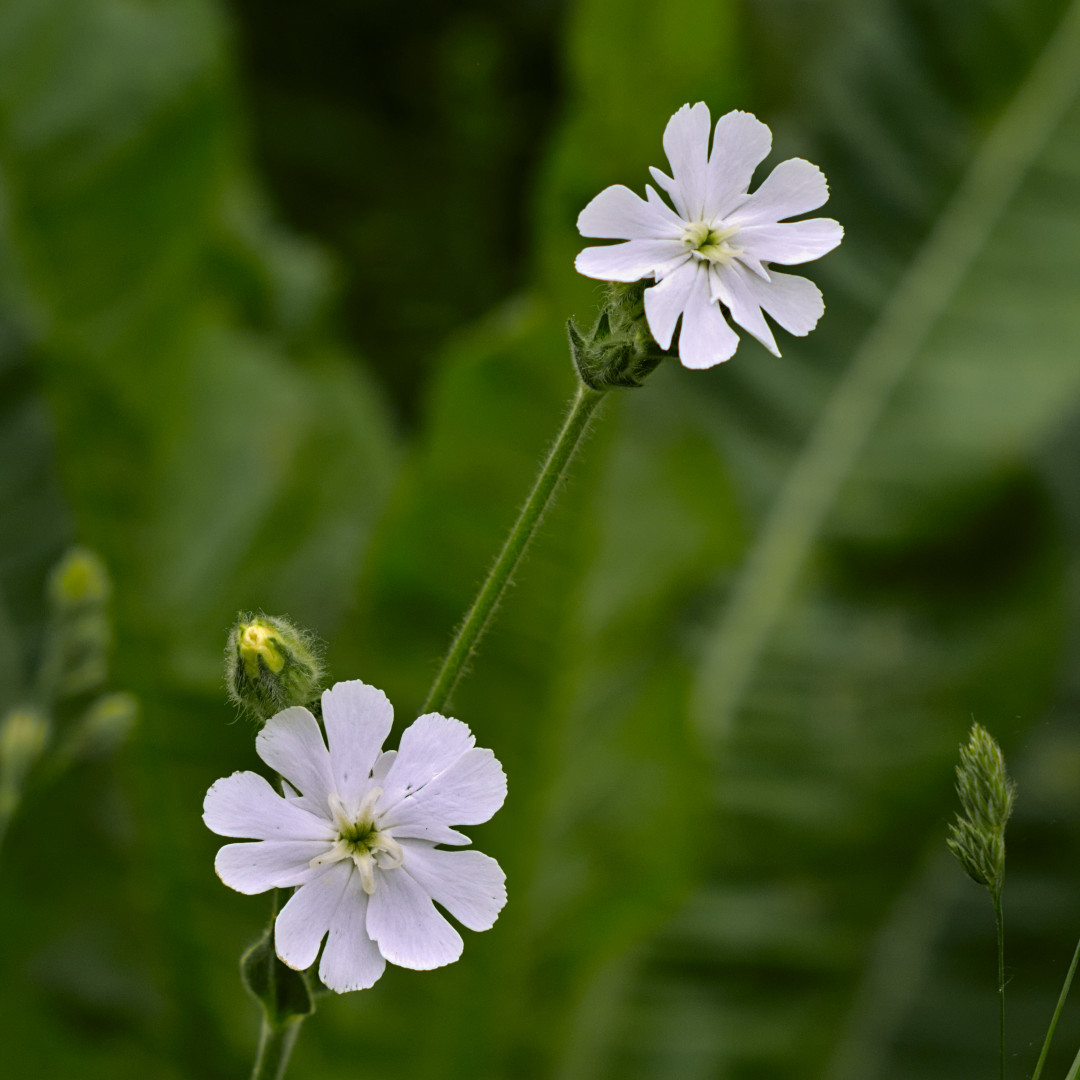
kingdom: Plantae
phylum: Tracheophyta
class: Magnoliopsida
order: Caryophyllales
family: Caryophyllaceae
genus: Silene
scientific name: Silene latifolia
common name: White campion
